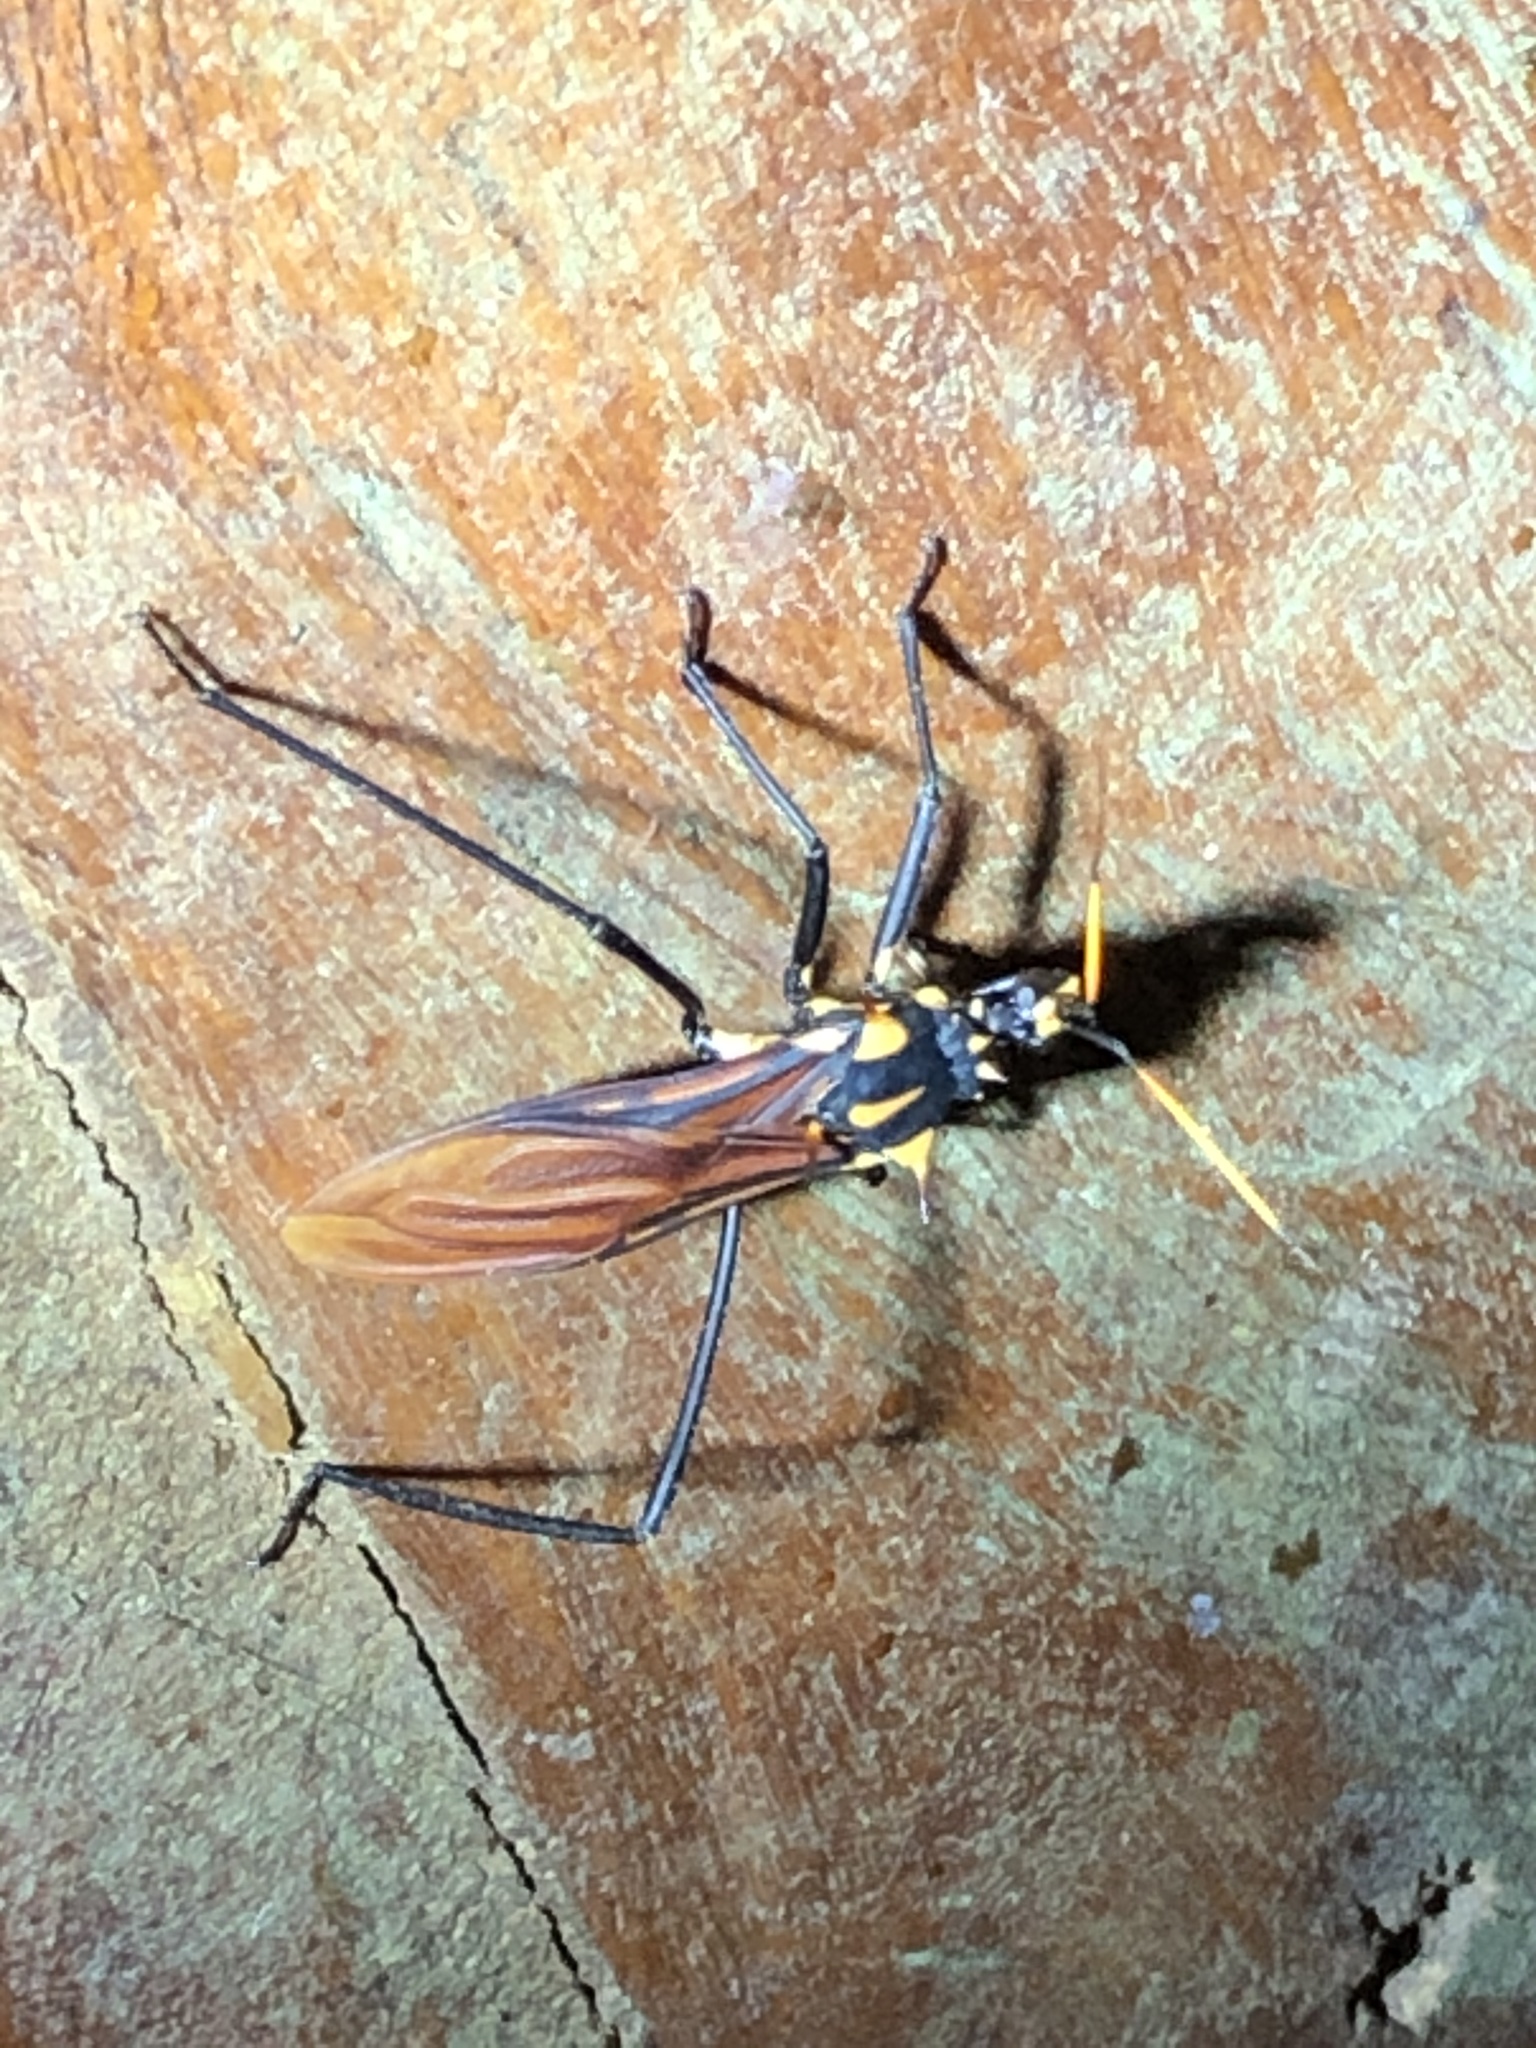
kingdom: Animalia
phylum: Arthropoda
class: Insecta
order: Hemiptera
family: Reduviidae
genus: Zelurus
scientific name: Zelurus festivus
